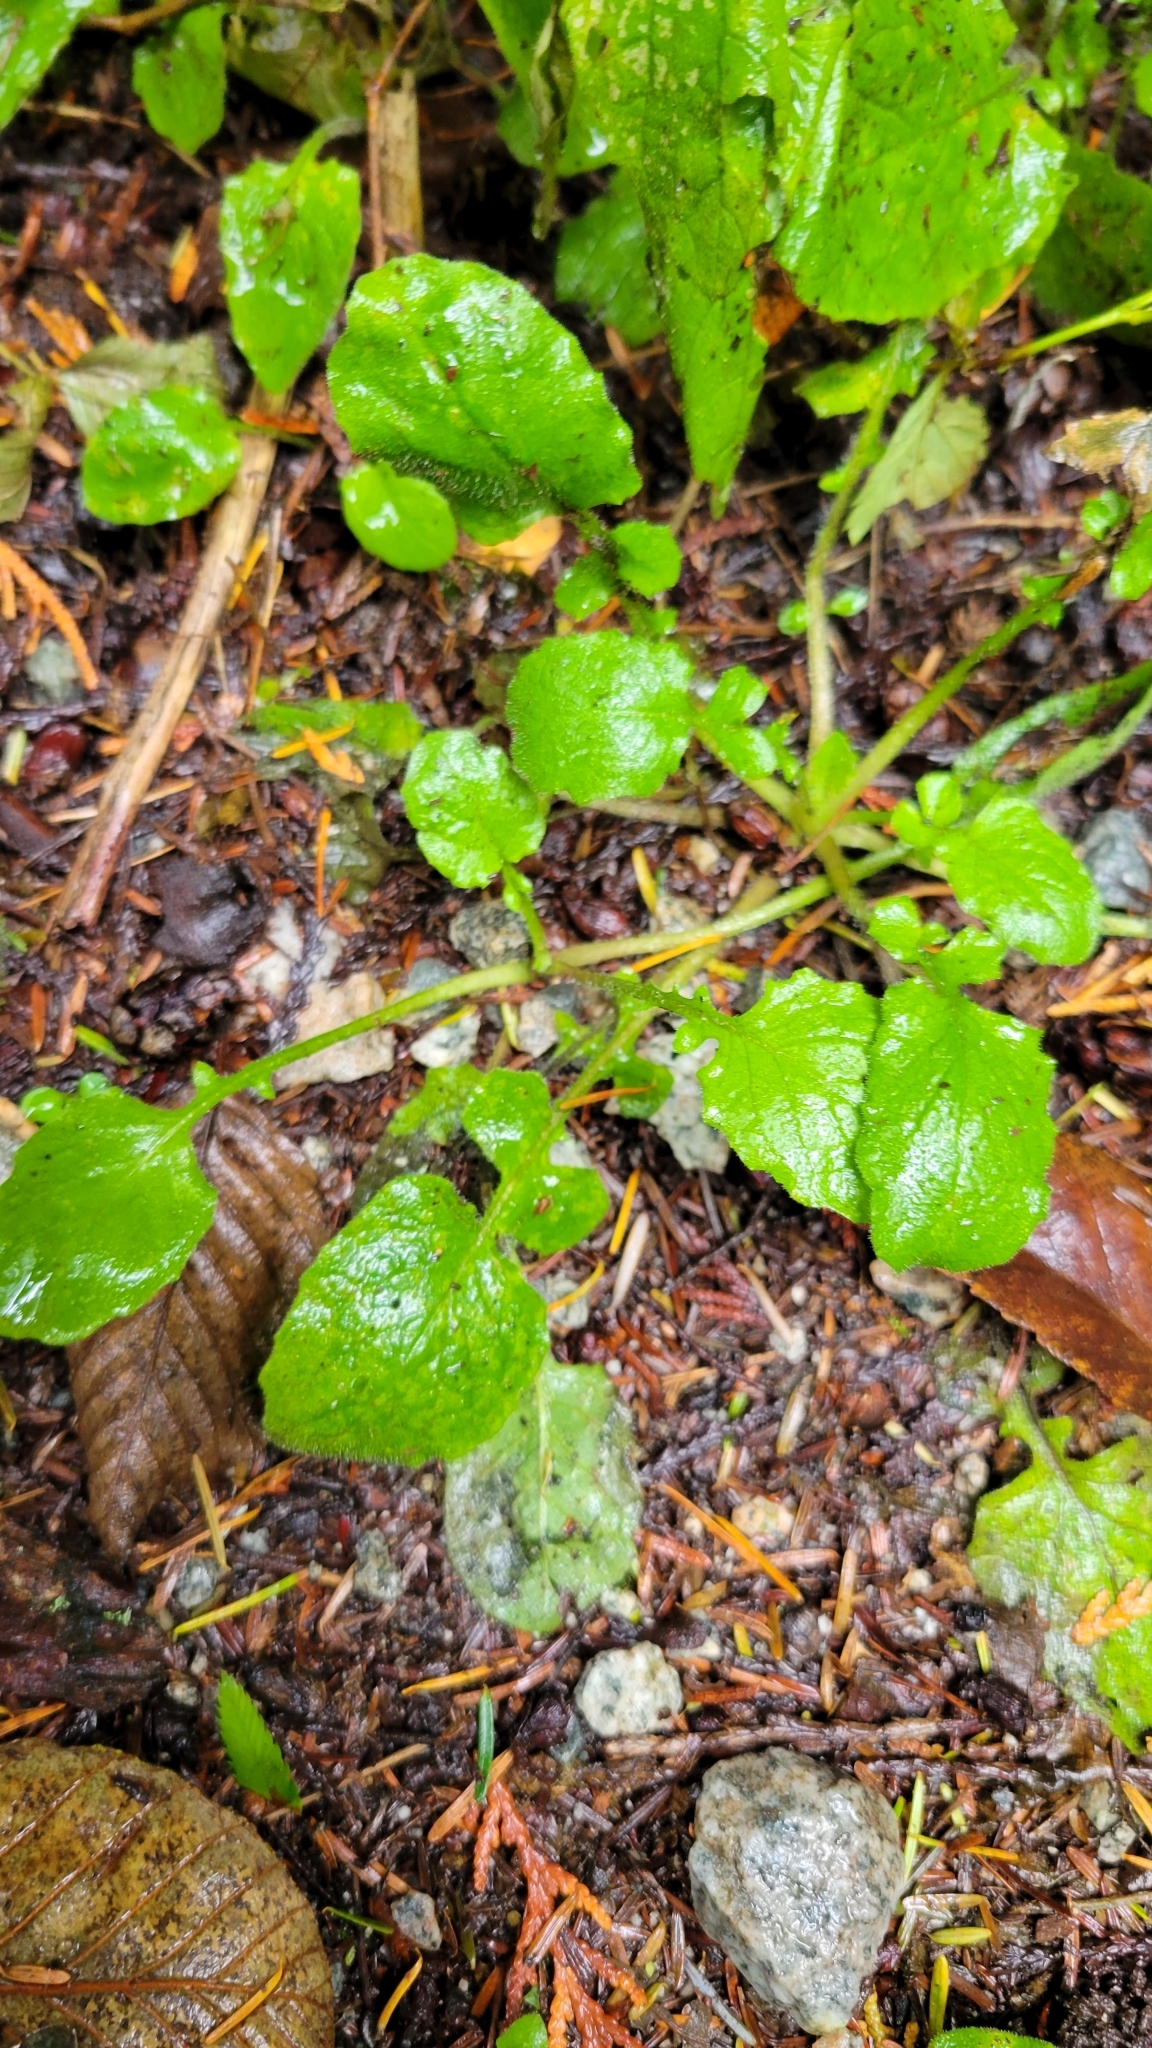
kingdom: Plantae
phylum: Tracheophyta
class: Magnoliopsida
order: Asterales
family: Asteraceae
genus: Lapsana
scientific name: Lapsana communis
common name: Nipplewort
